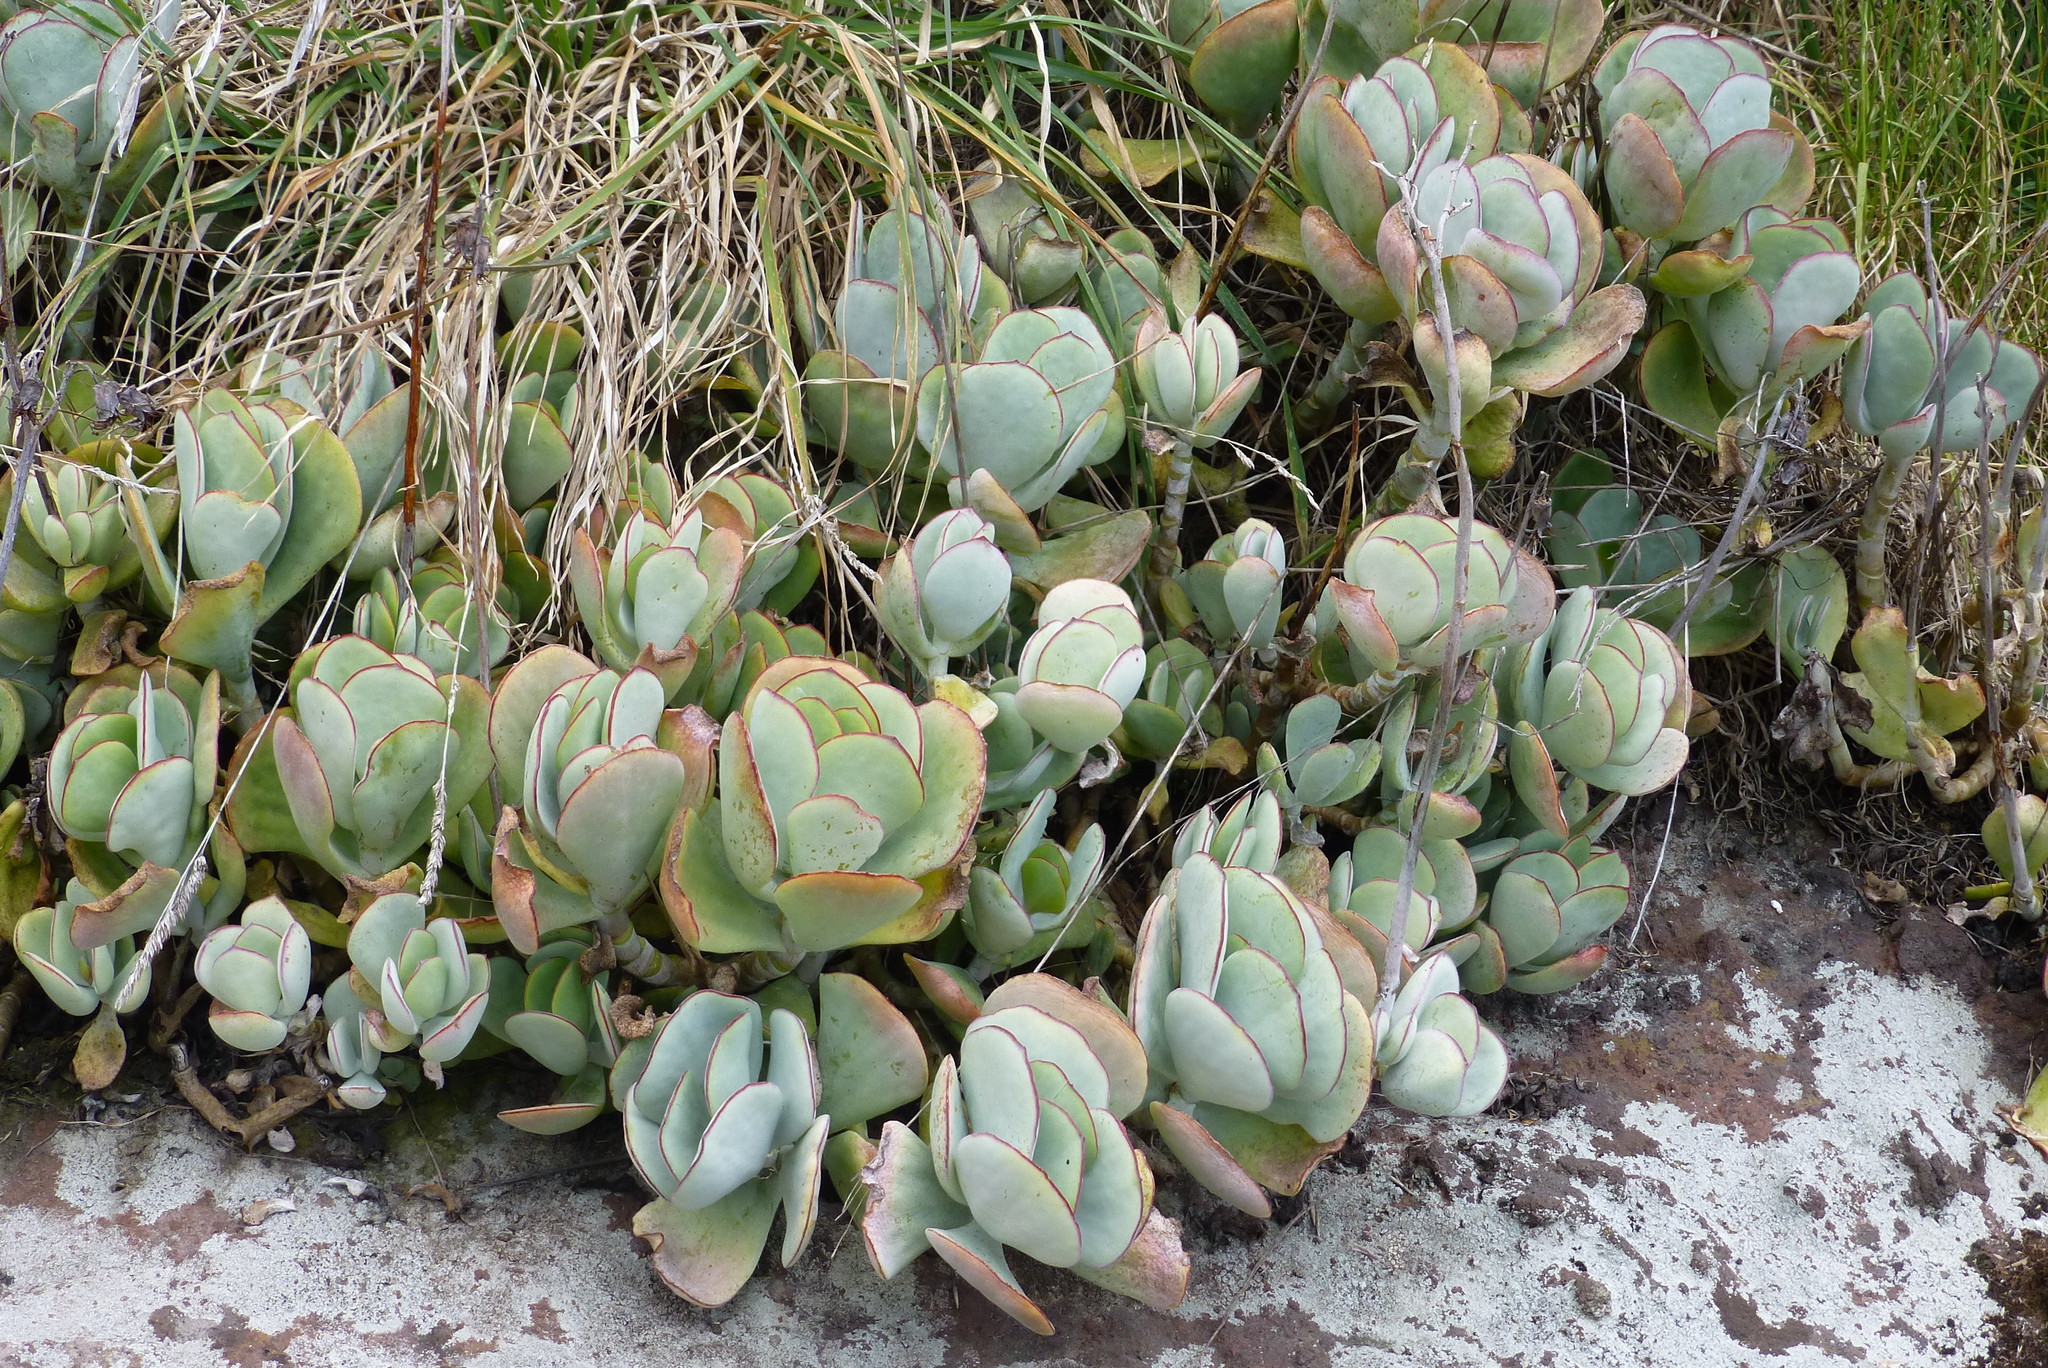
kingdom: Plantae
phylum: Tracheophyta
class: Magnoliopsida
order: Saxifragales
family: Crassulaceae
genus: Cotyledon
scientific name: Cotyledon orbiculata
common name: Pig's ear
